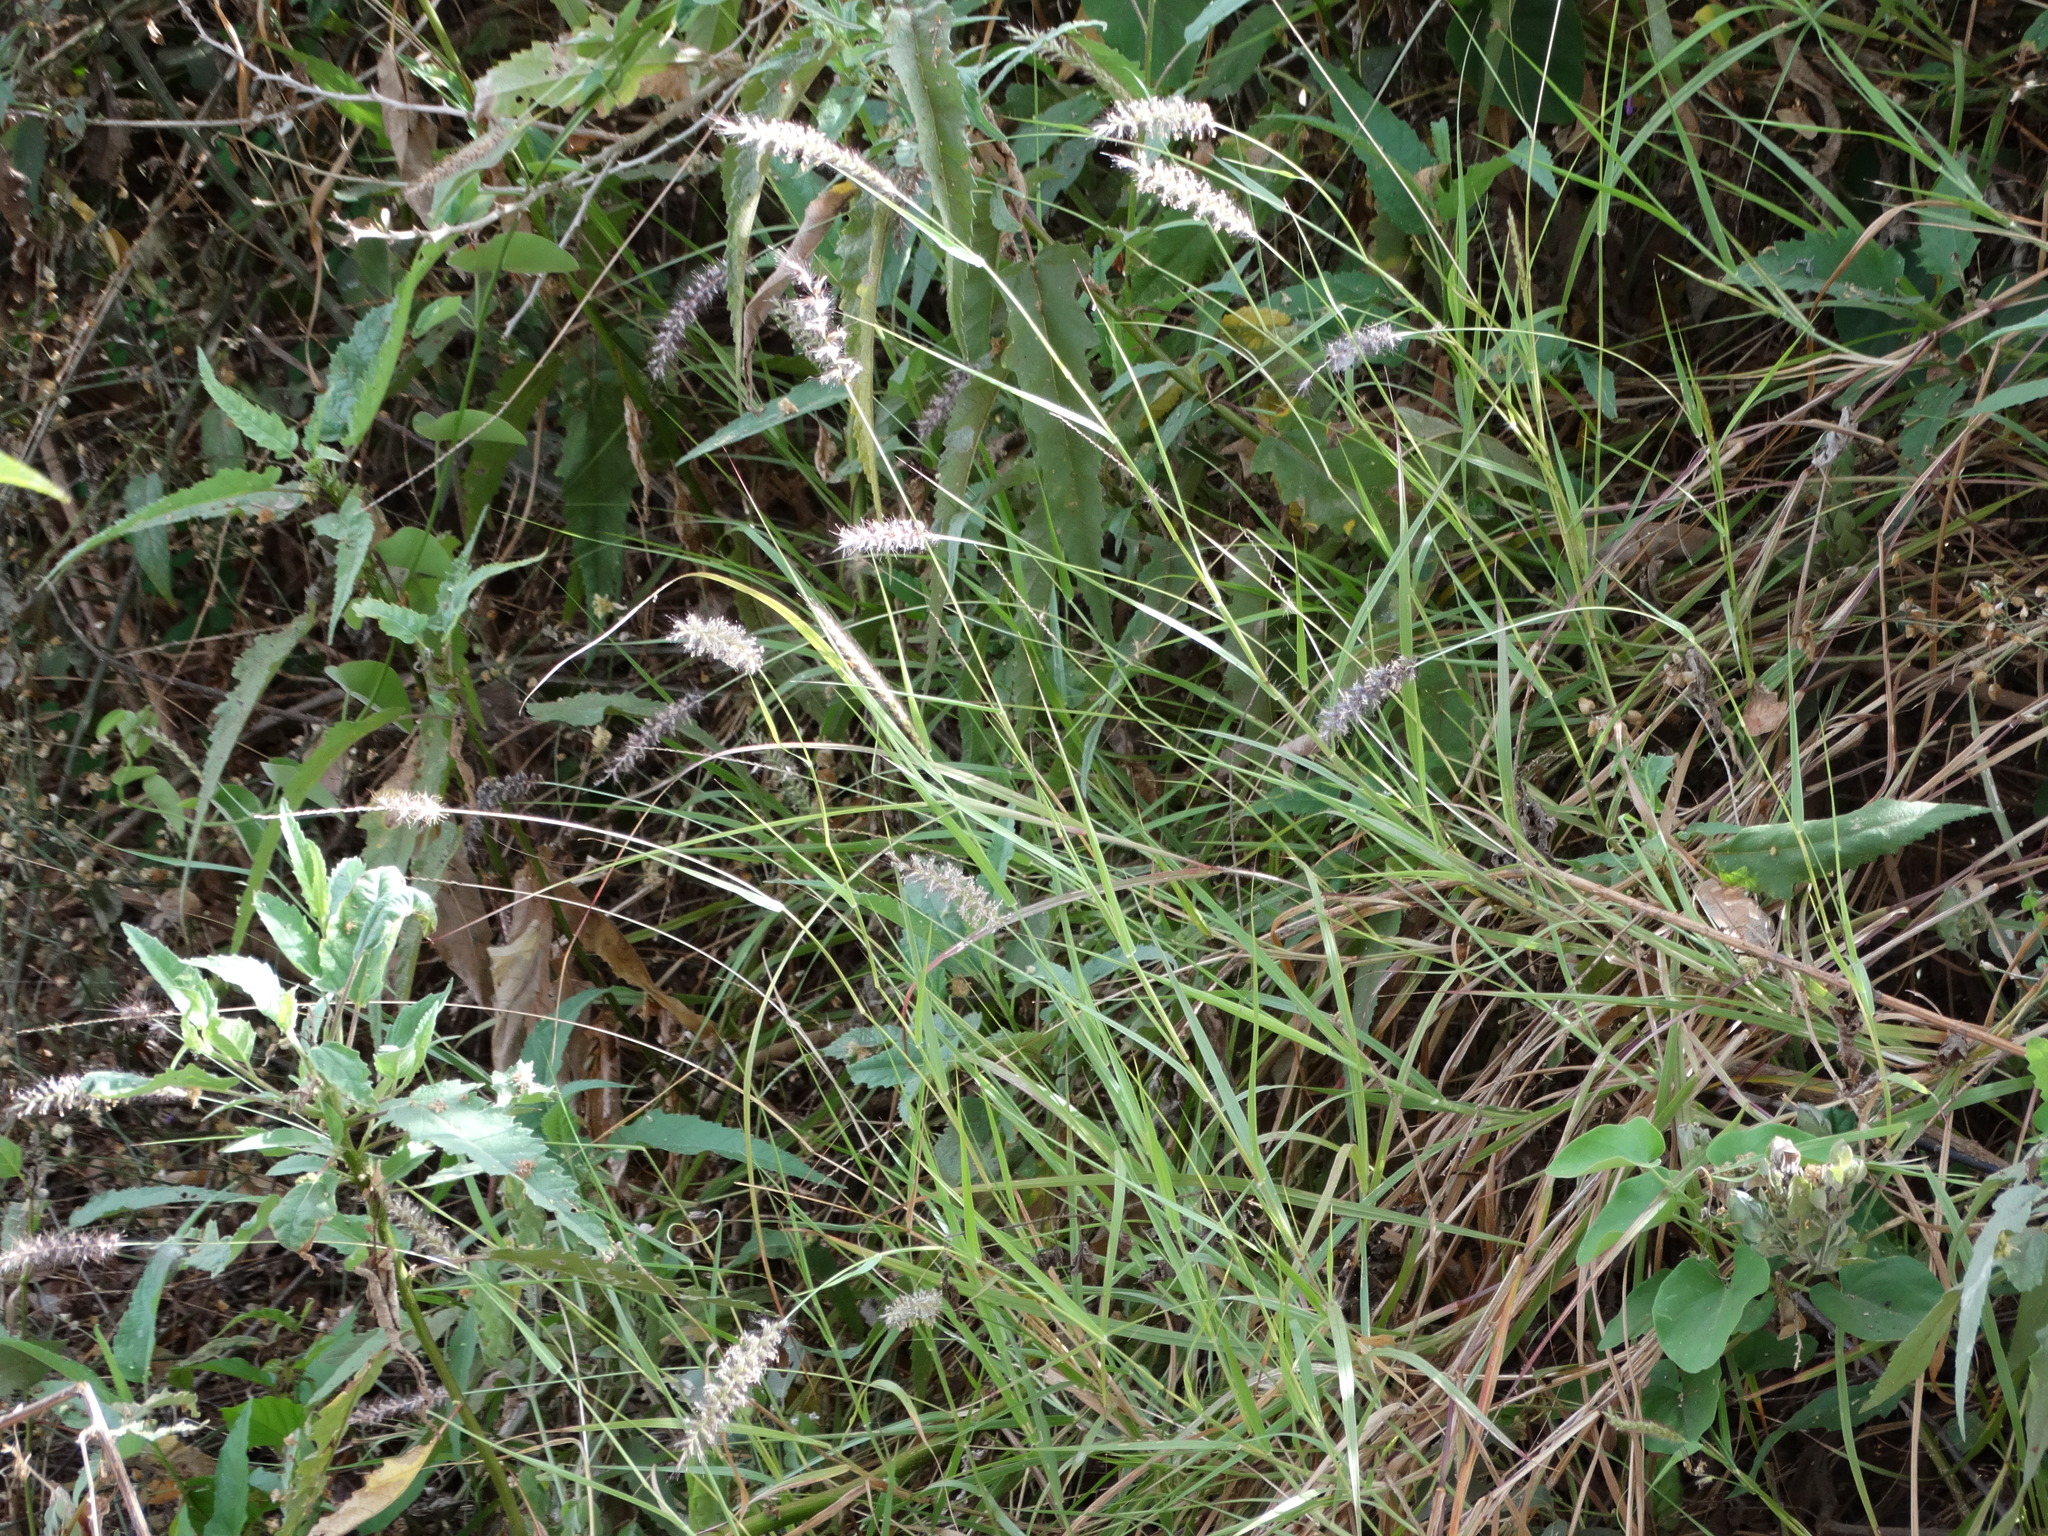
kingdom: Plantae
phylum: Tracheophyta
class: Liliopsida
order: Poales
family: Poaceae
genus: Cenchrus
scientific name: Cenchrus ciliaris
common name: Buffelgrass
